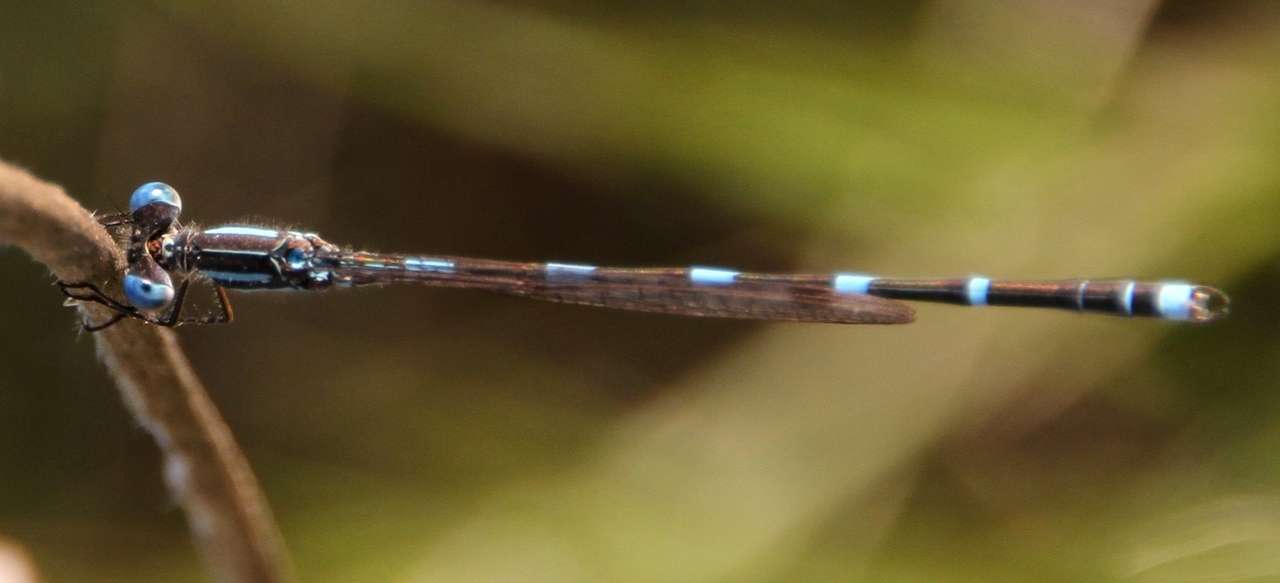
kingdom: Animalia
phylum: Arthropoda
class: Insecta
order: Odonata
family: Lestidae
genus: Austrolestes
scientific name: Austrolestes leda
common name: Wandering ringtail
